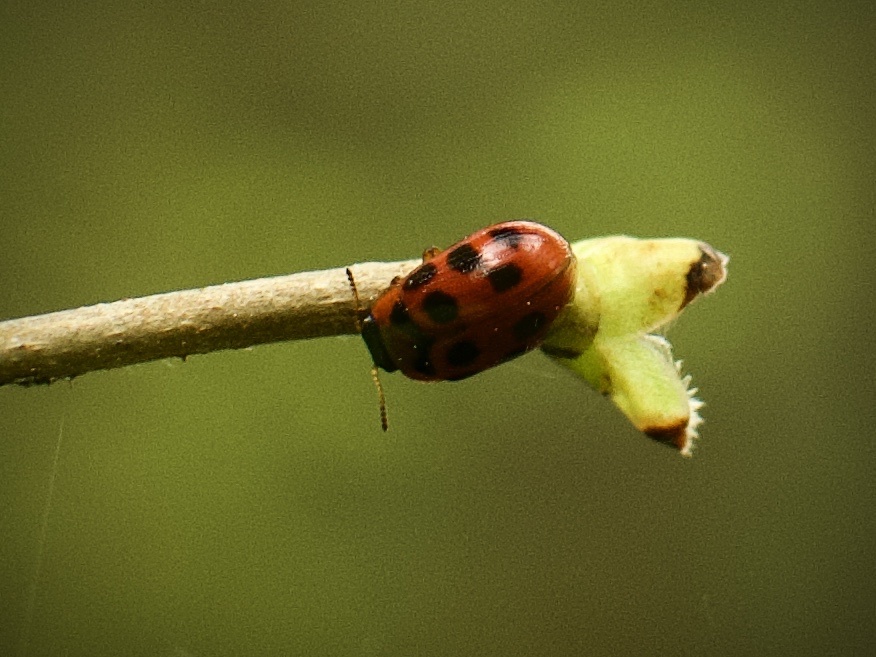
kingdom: Animalia
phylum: Arthropoda
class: Insecta
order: Coleoptera
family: Chrysomelidae
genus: Gonioctena
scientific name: Gonioctena decemnotata
